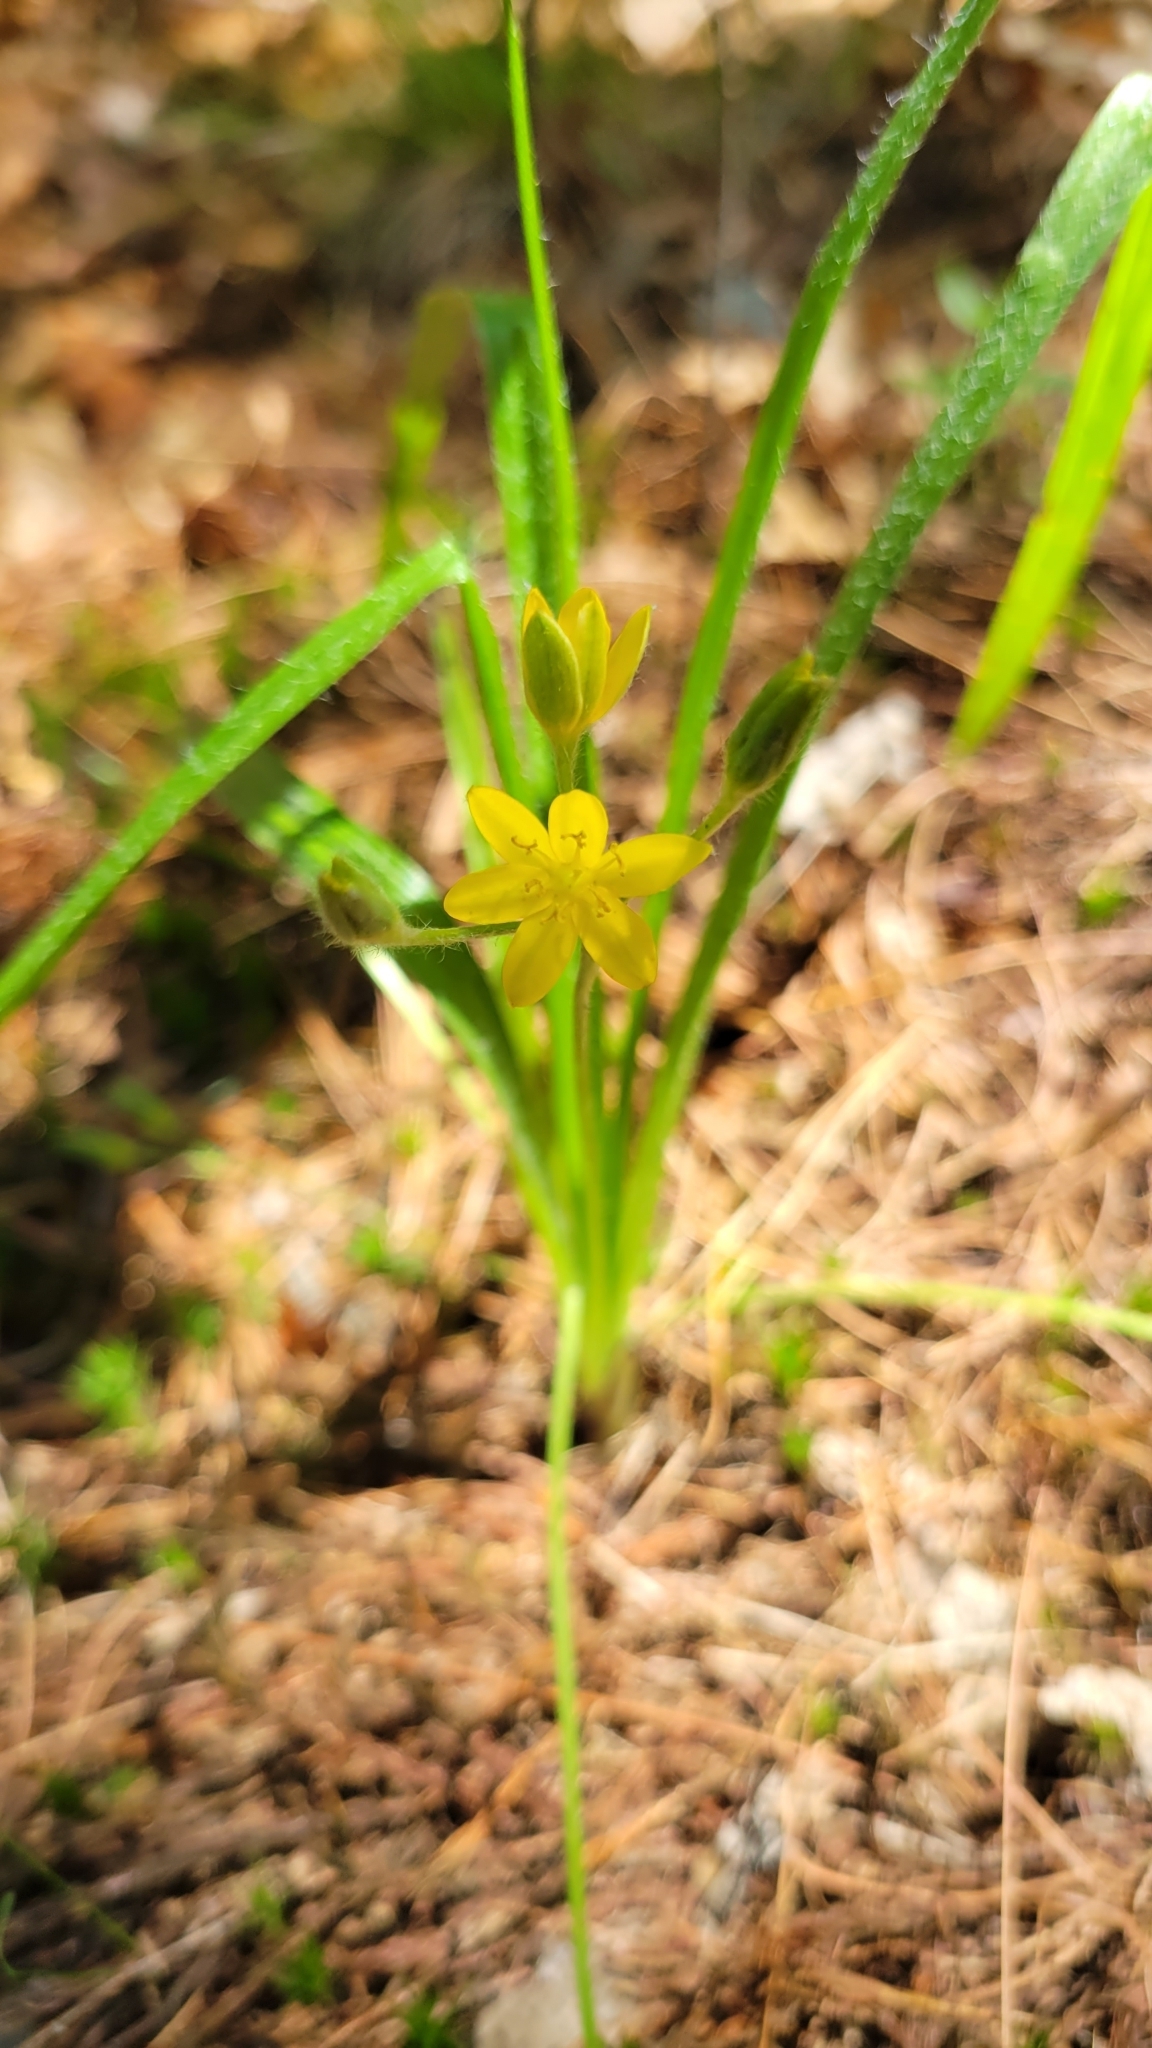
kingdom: Plantae
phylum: Tracheophyta
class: Liliopsida
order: Asparagales
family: Hypoxidaceae
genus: Hypoxis
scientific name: Hypoxis hirsuta
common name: Common goldstar
